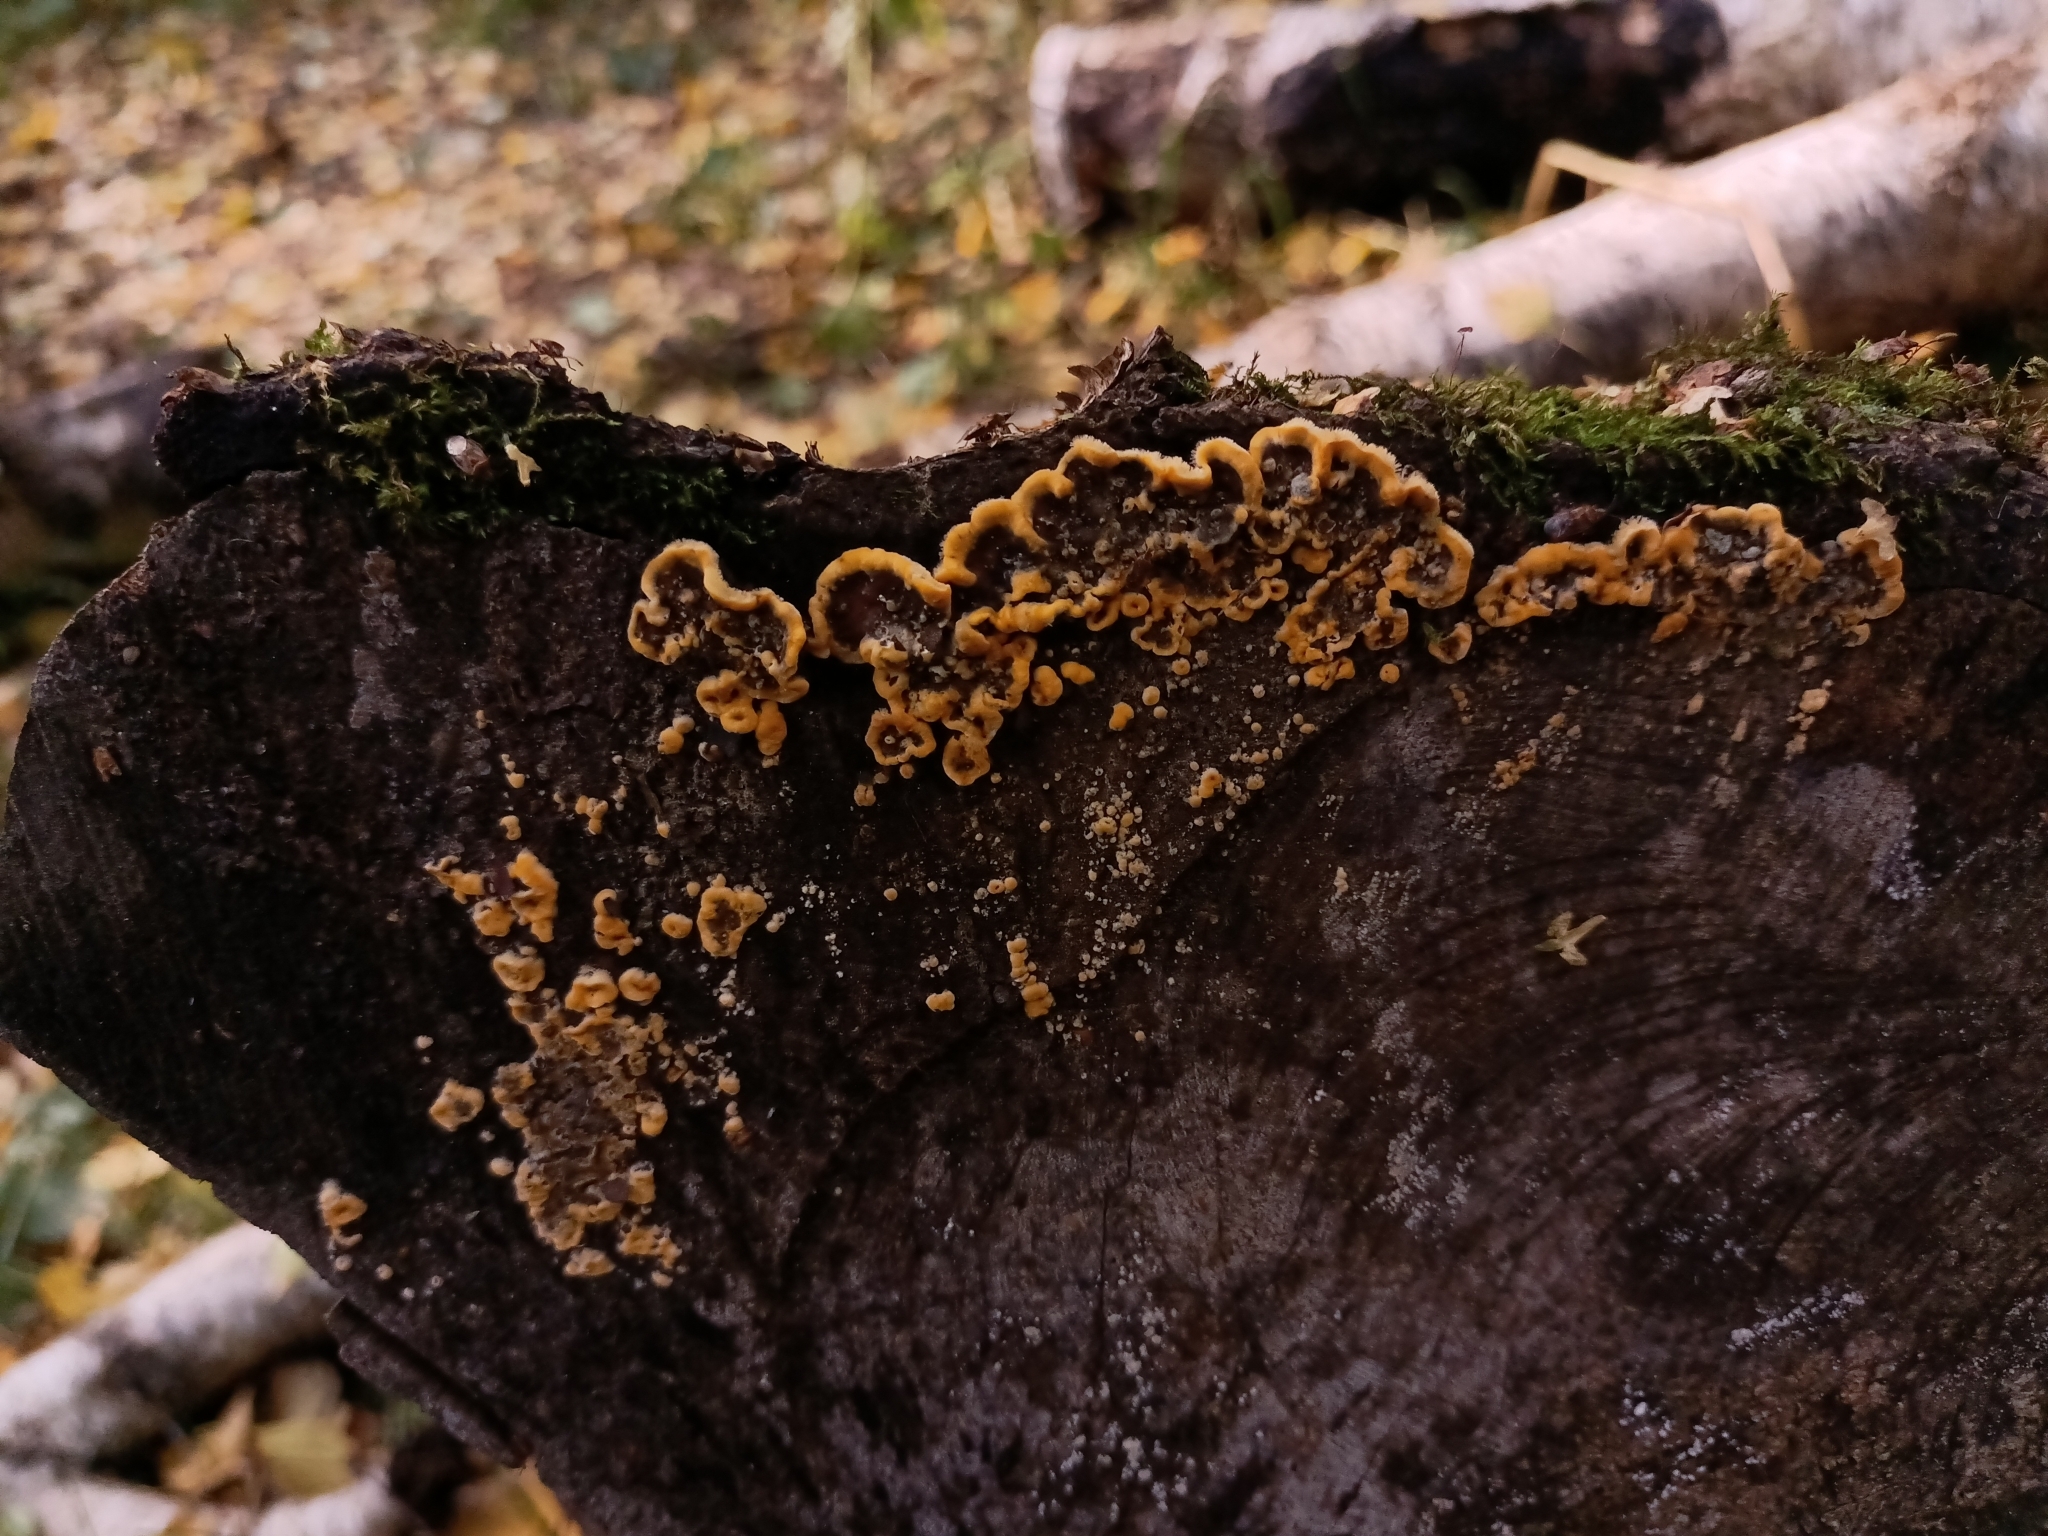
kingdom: Fungi
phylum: Basidiomycota
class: Agaricomycetes
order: Russulales
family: Stereaceae
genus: Stereum
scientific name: Stereum hirsutum
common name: Hairy curtain crust
